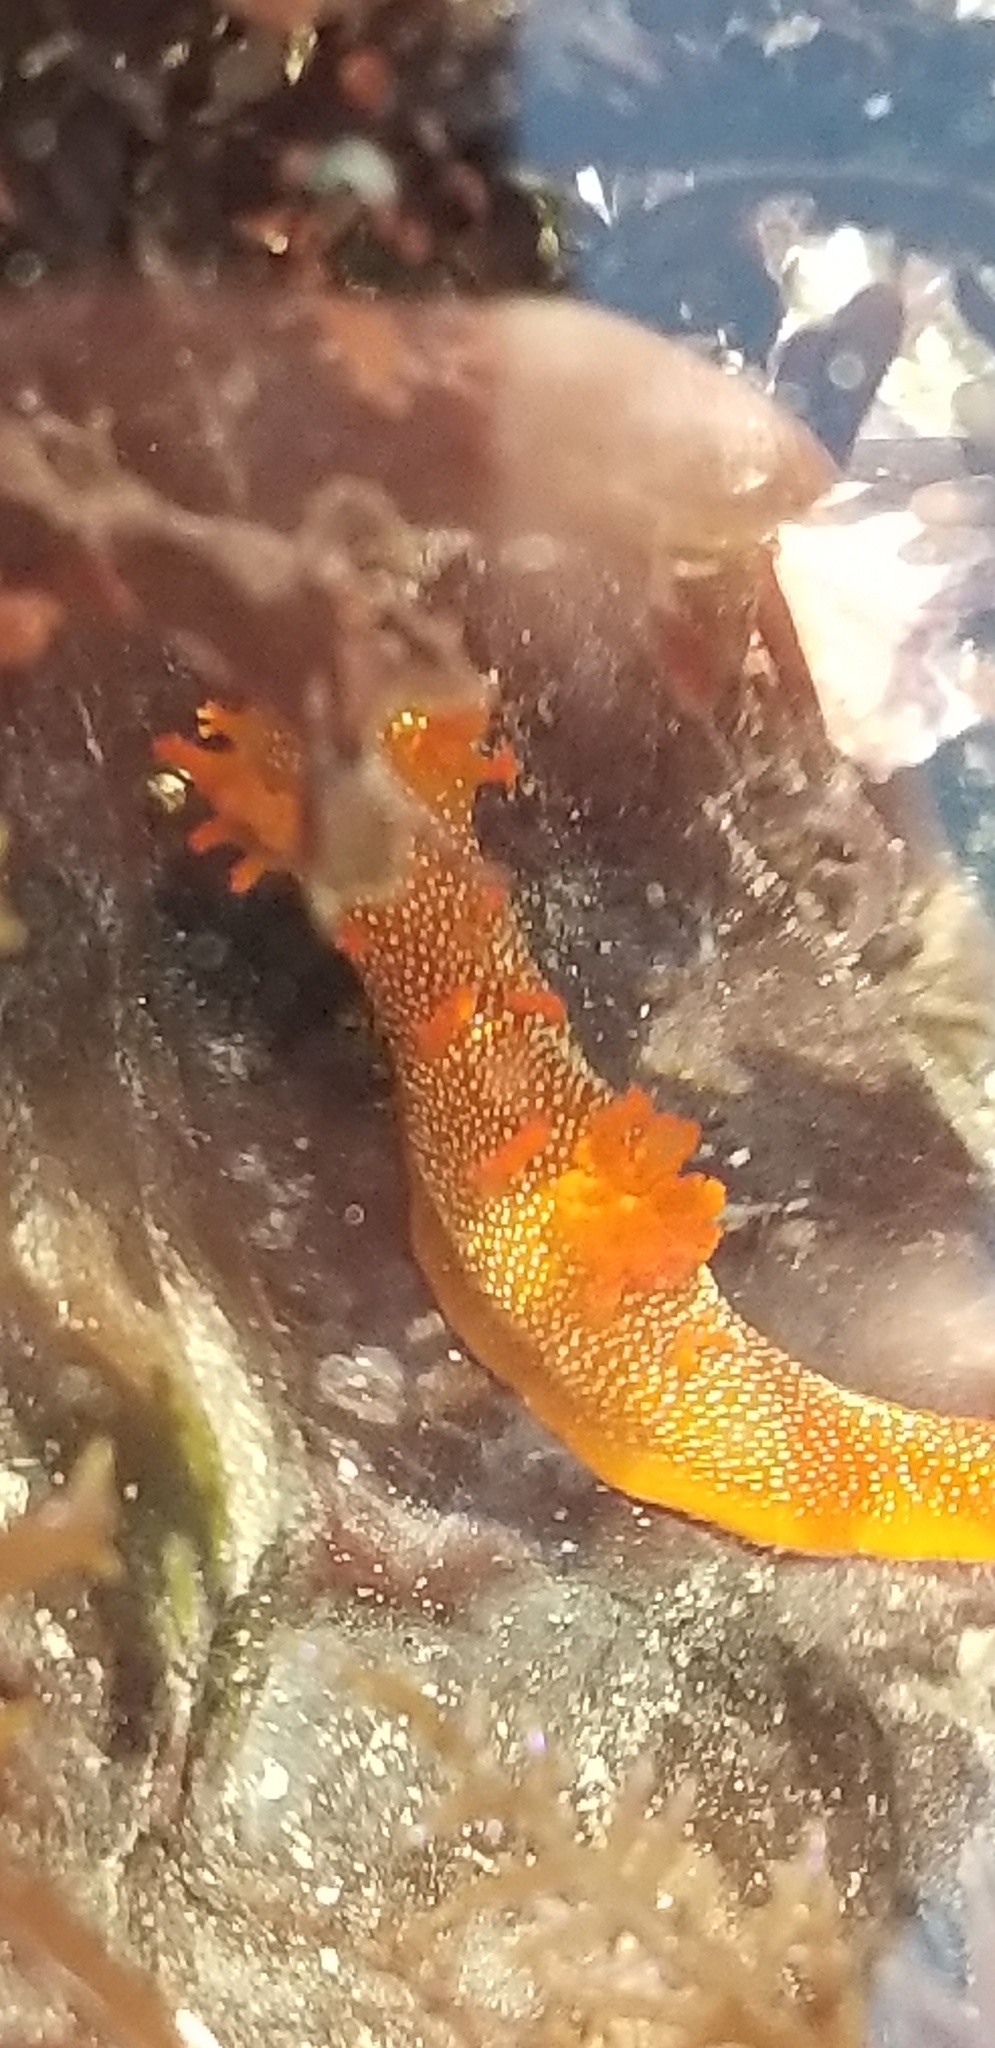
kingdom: Animalia
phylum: Mollusca
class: Gastropoda
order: Nudibranchia
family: Polyceridae
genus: Triopha
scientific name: Triopha maculata
